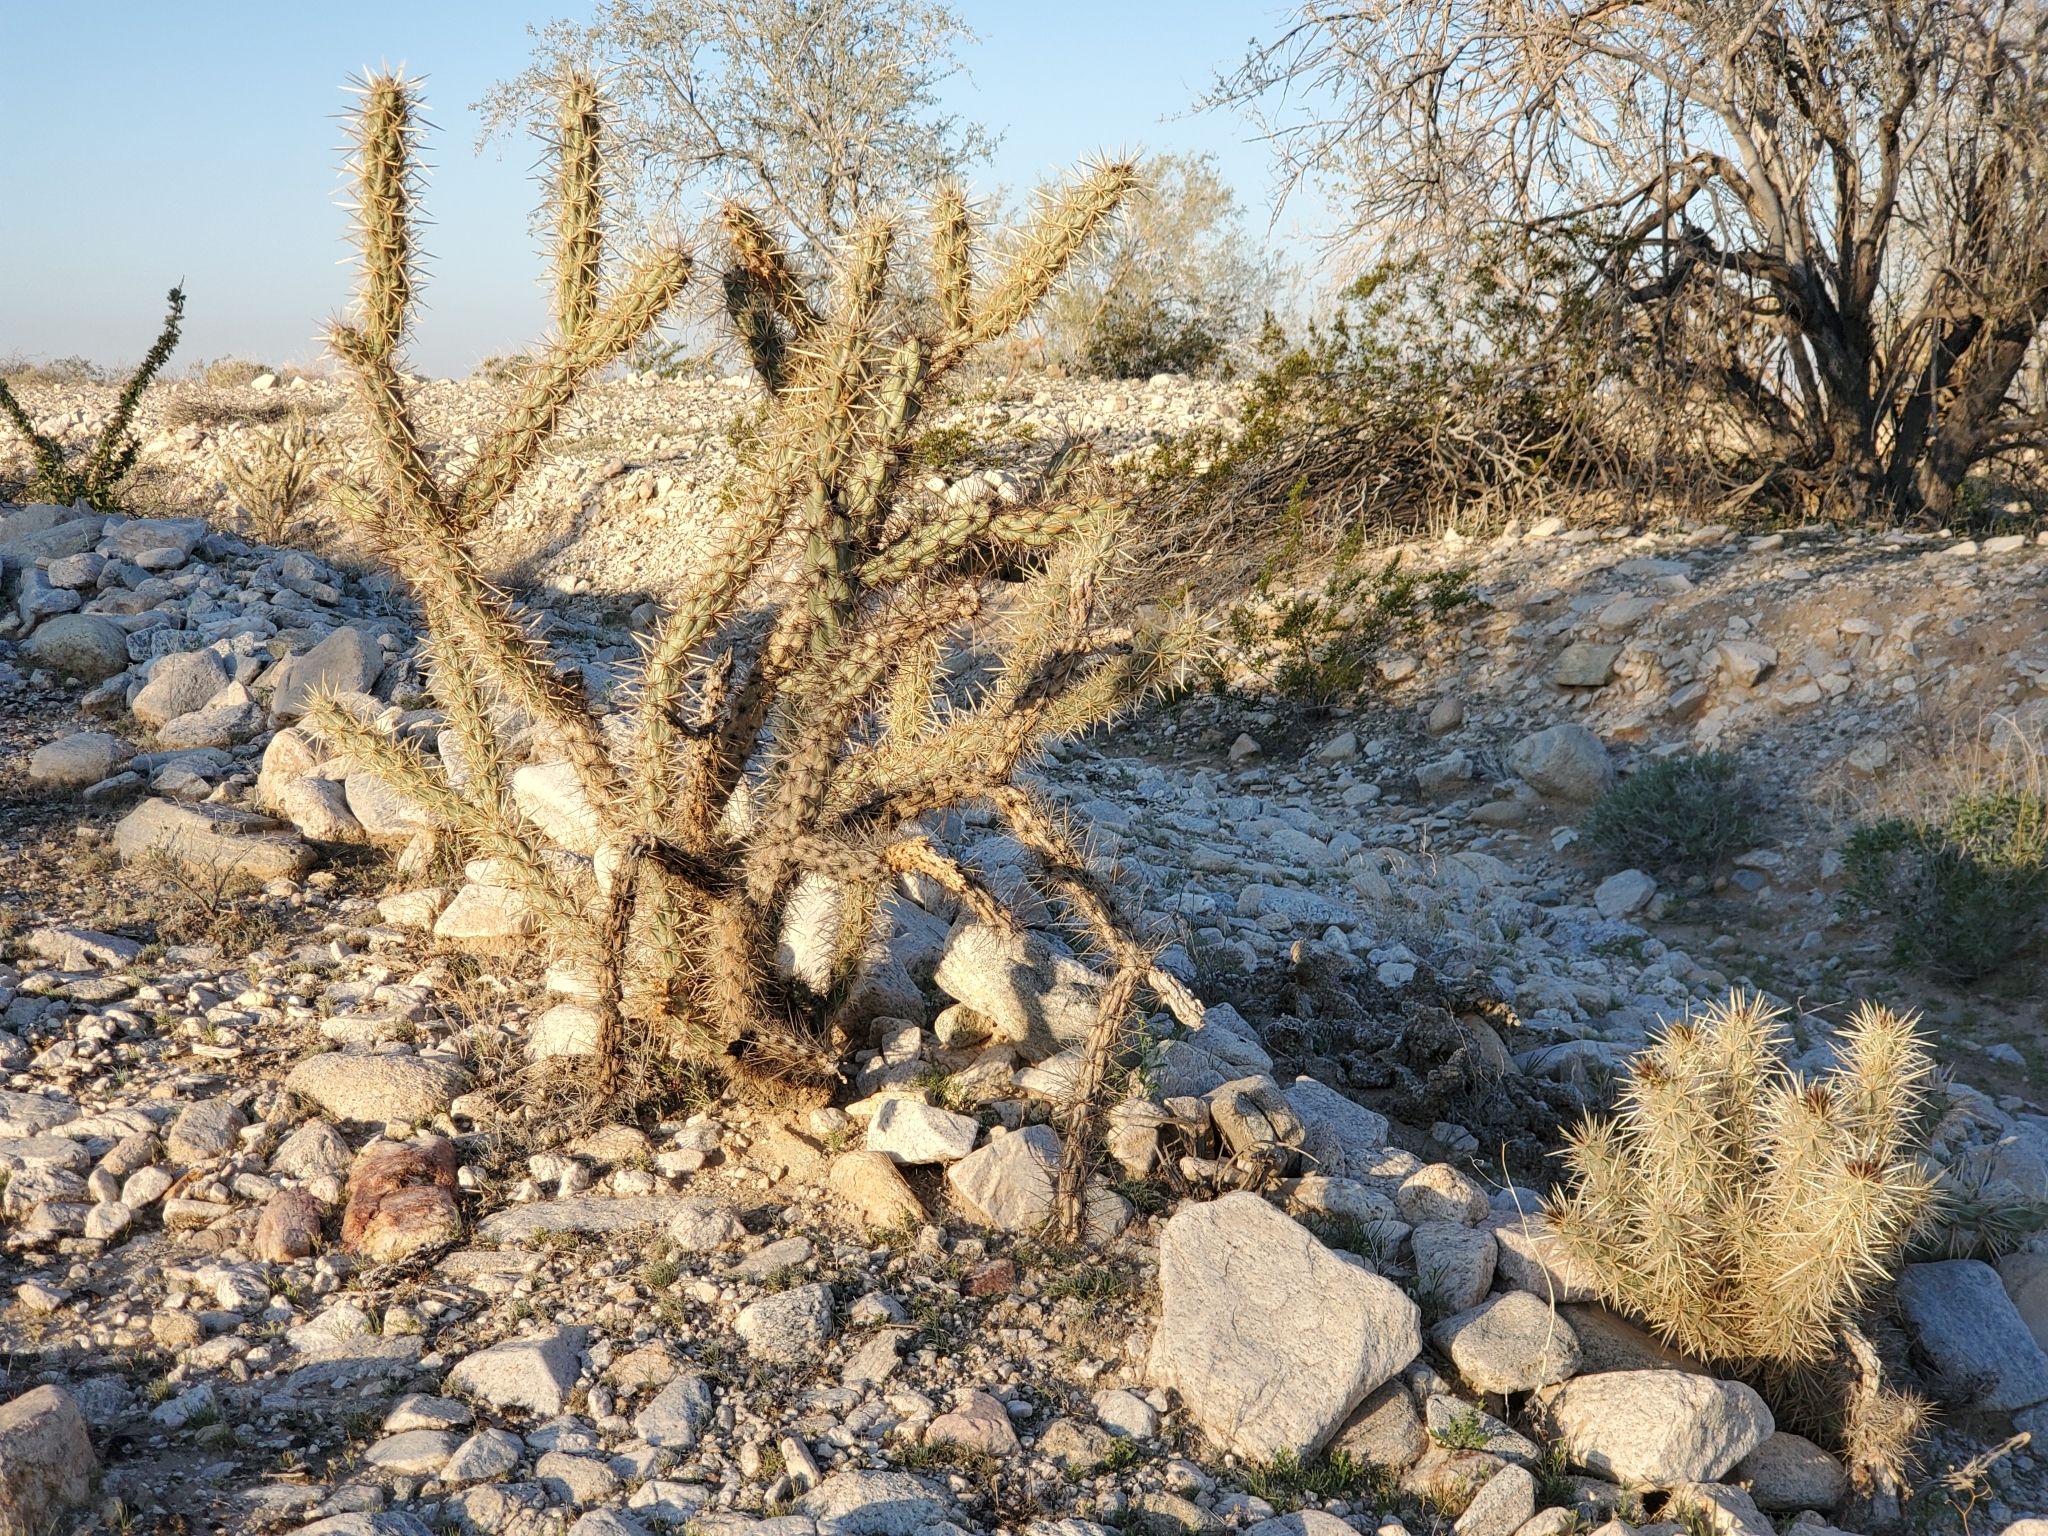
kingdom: Plantae
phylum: Tracheophyta
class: Magnoliopsida
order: Caryophyllales
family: Cactaceae
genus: Cylindropuntia
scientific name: Cylindropuntia acanthocarpa
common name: Buckhorn cholla
